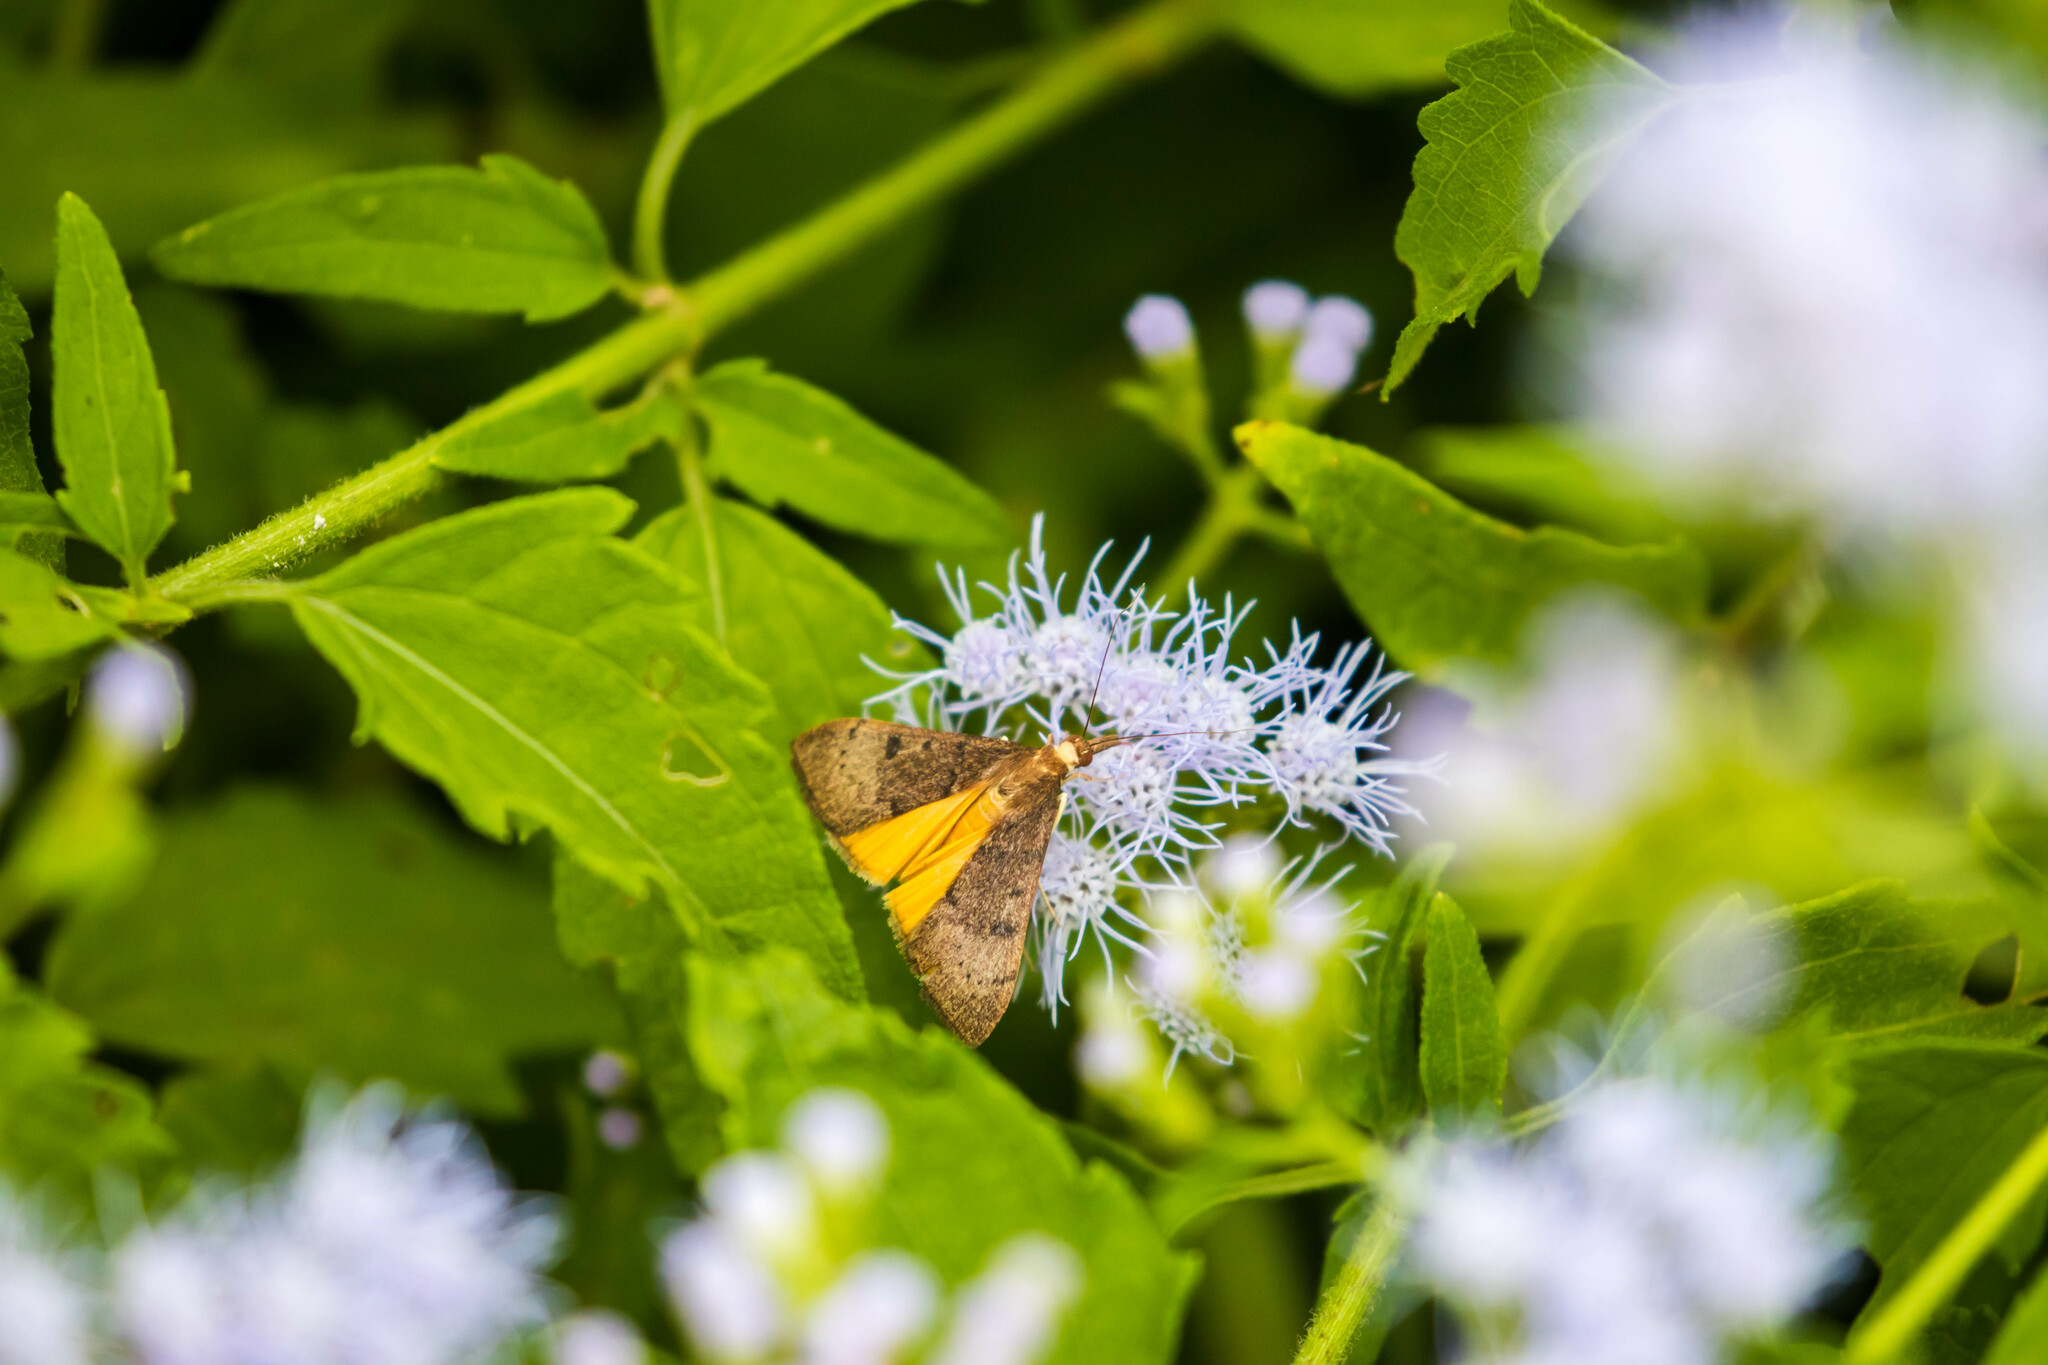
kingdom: Animalia
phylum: Arthropoda
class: Insecta
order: Lepidoptera
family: Crambidae
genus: Uresiphita
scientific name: Uresiphita reversalis
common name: Genista broom moth
